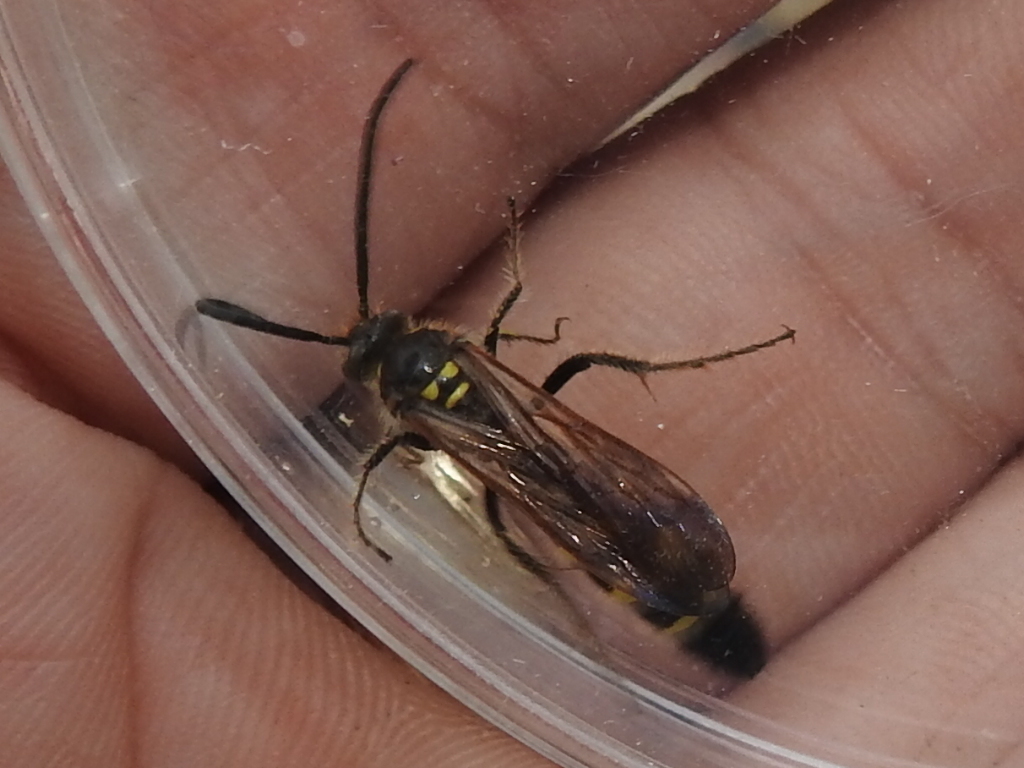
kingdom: Animalia
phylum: Arthropoda
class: Insecta
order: Hymenoptera
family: Scoliidae
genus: Xantocampsomeris
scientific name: Xantocampsomeris limosa
